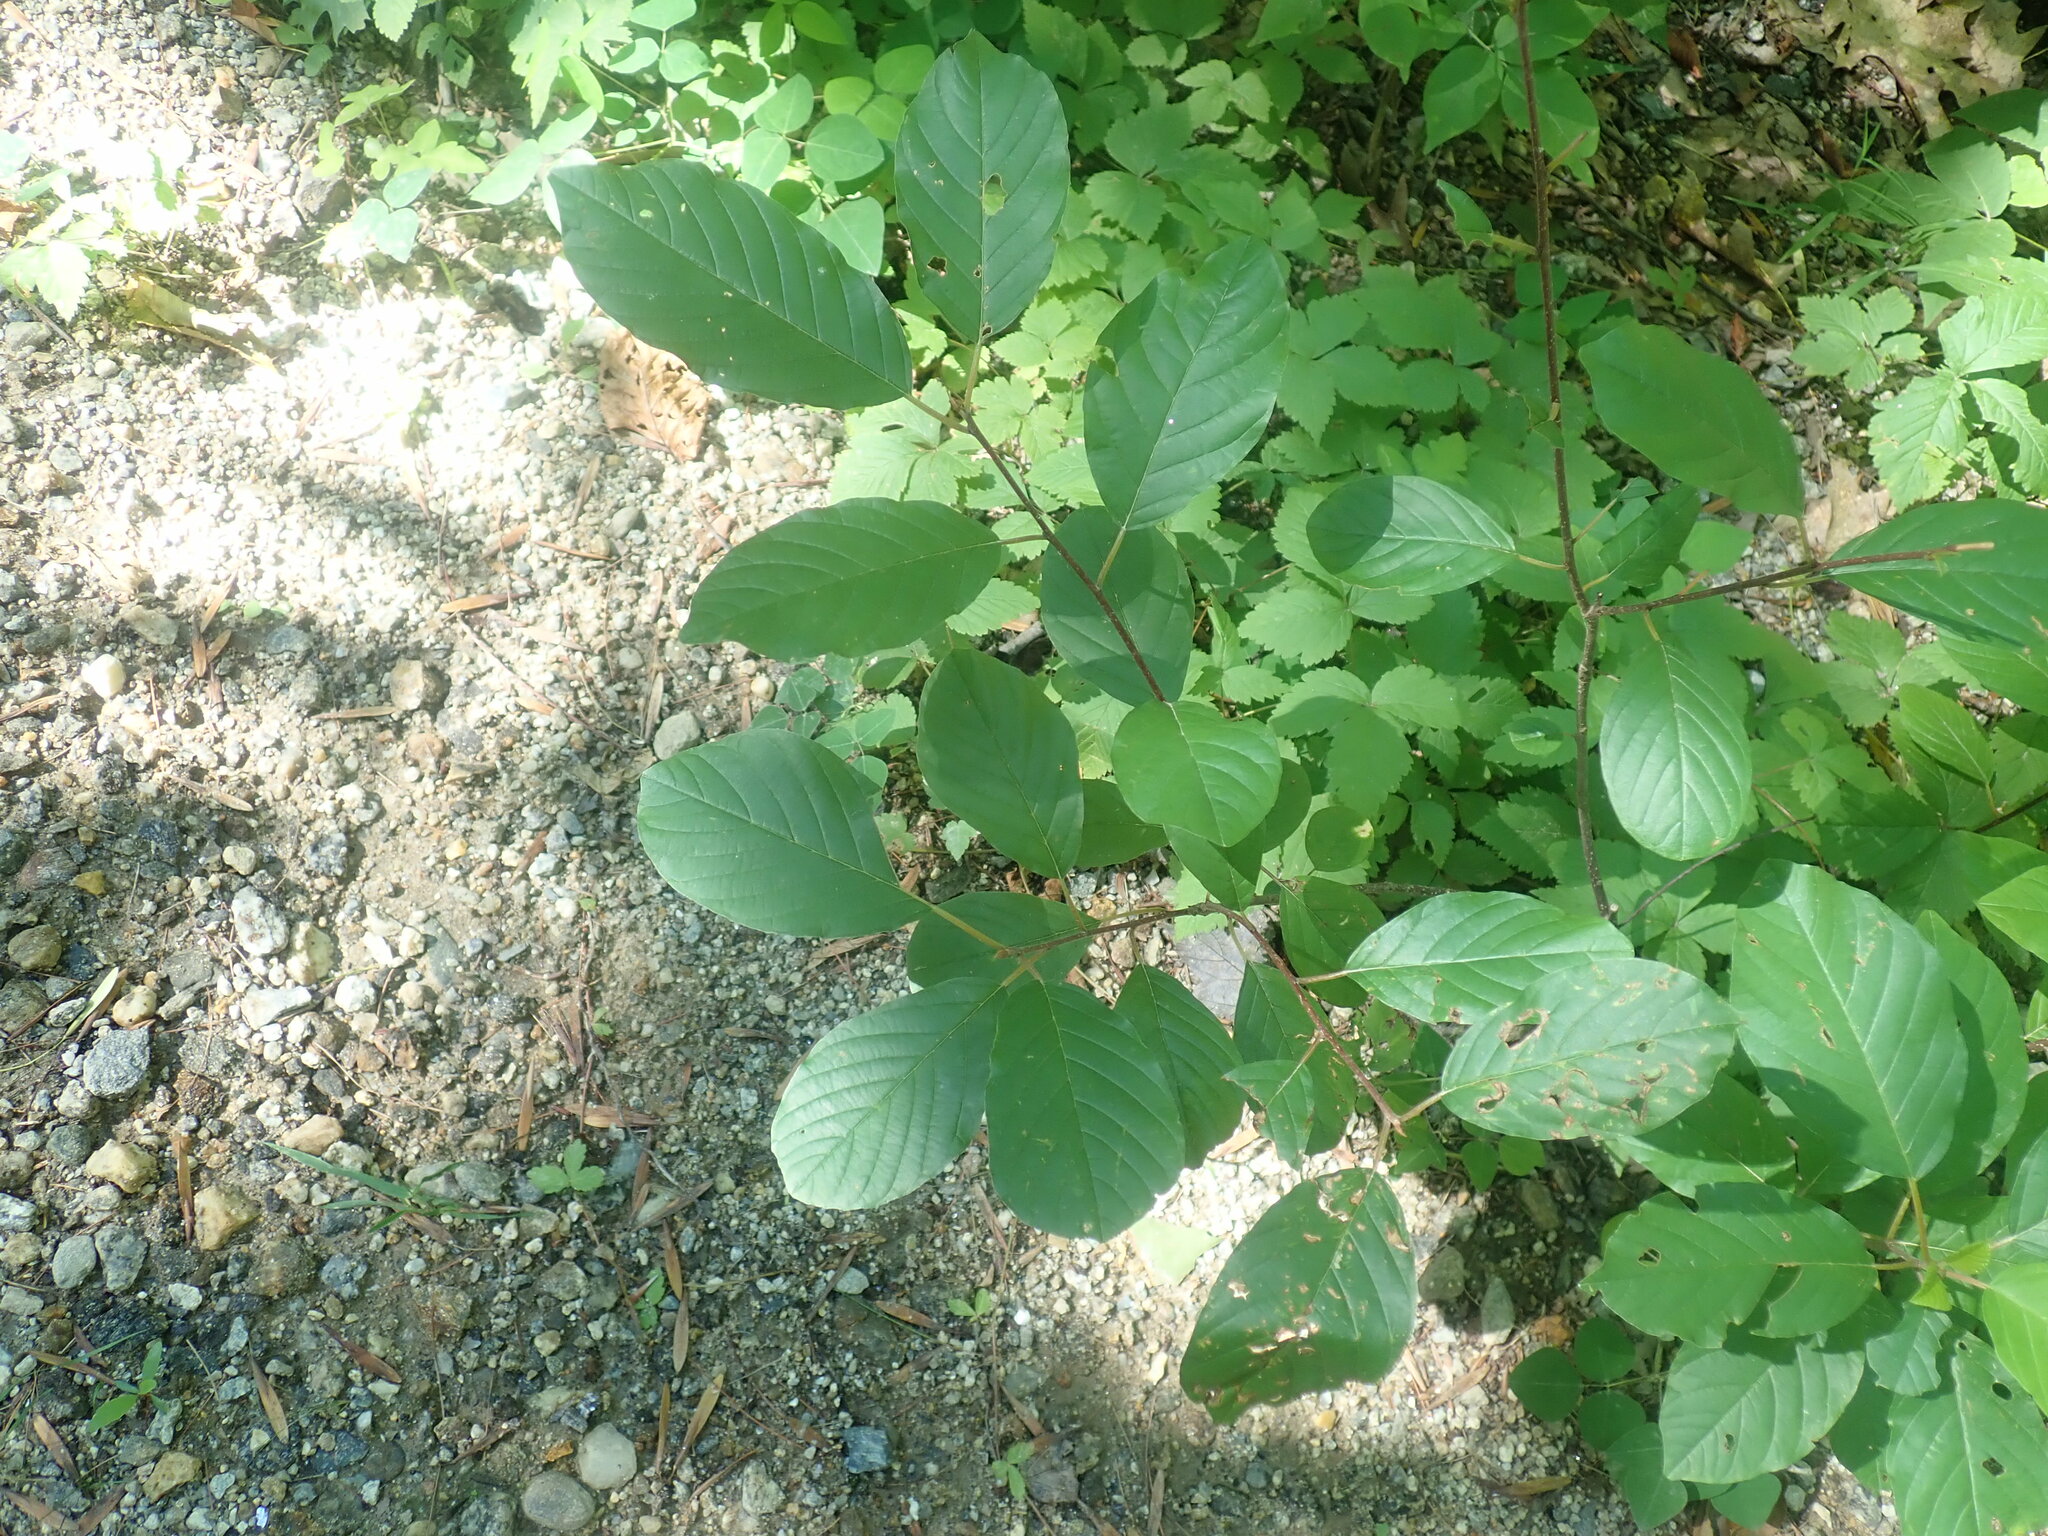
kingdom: Plantae
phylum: Tracheophyta
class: Magnoliopsida
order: Rosales
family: Rhamnaceae
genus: Frangula
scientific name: Frangula alnus
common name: Alder buckthorn
